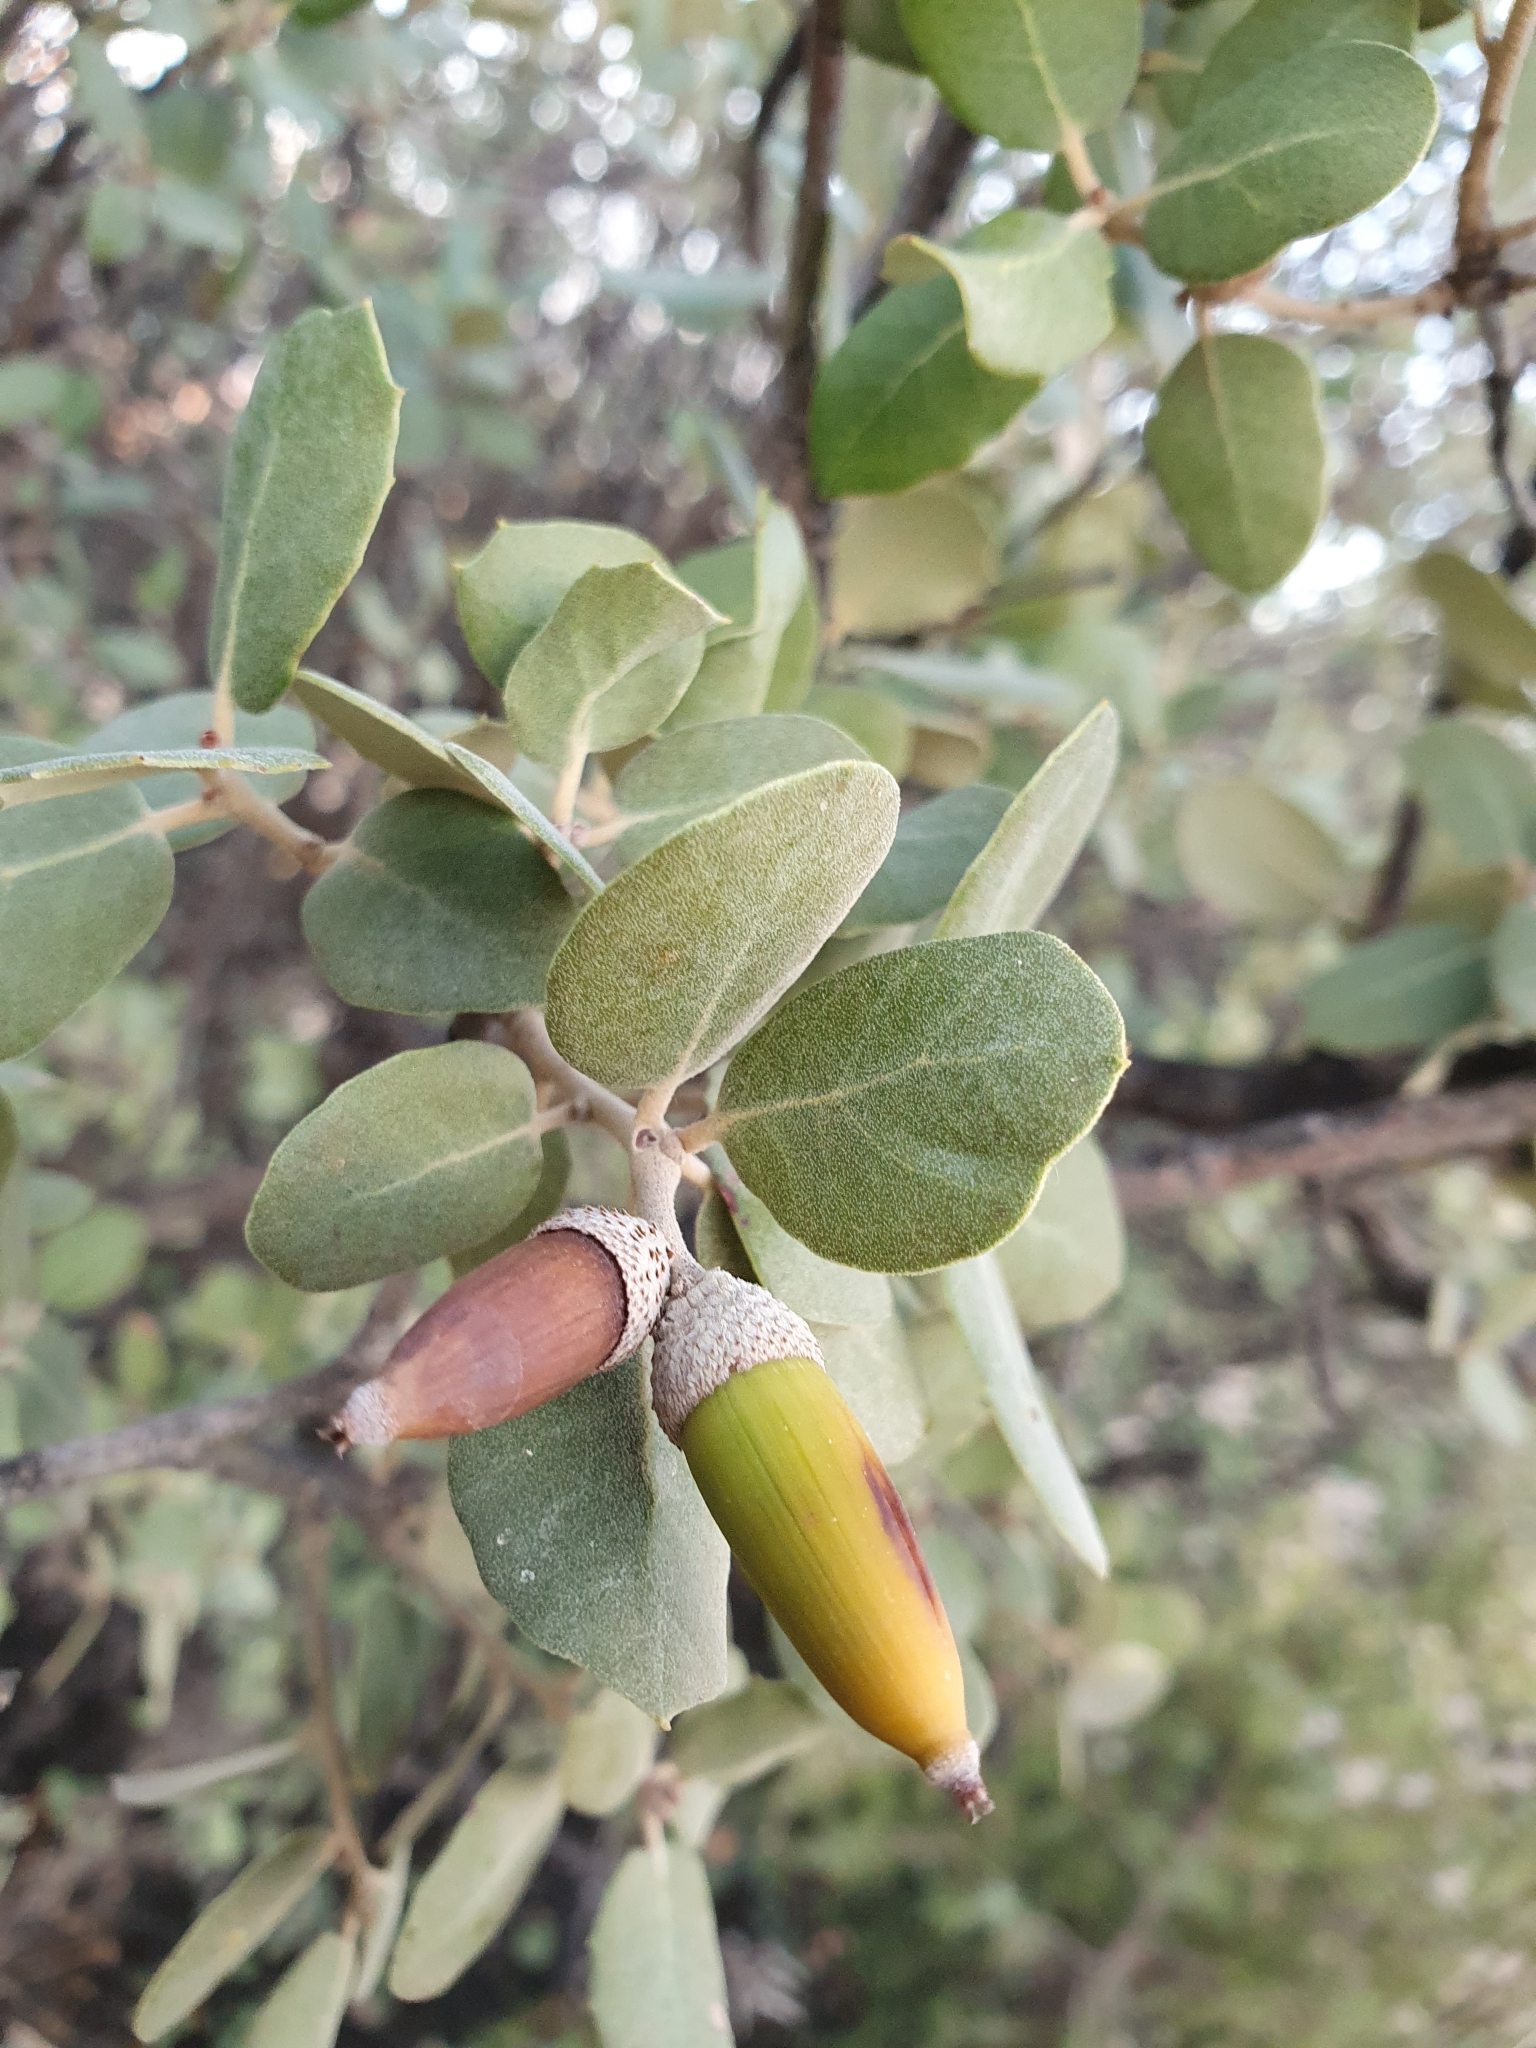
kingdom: Plantae
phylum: Tracheophyta
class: Magnoliopsida
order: Fagales
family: Fagaceae
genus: Quercus
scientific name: Quercus rotundifolia
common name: Holm oak
